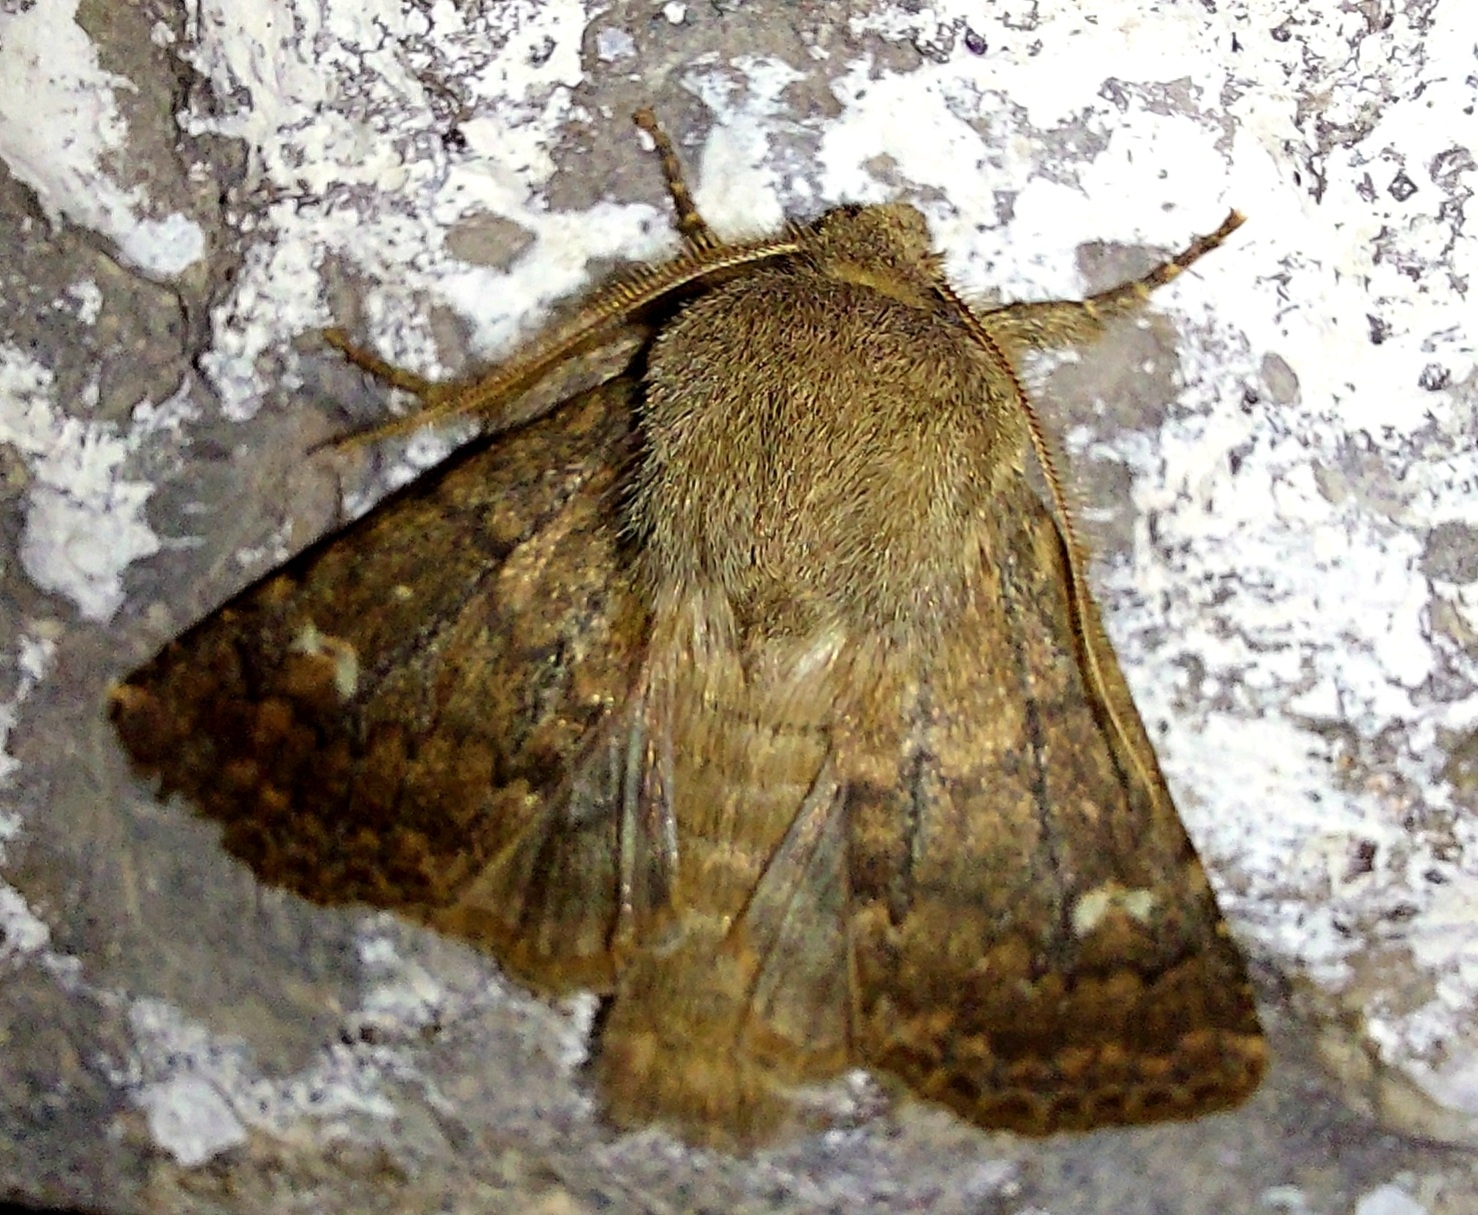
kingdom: Animalia
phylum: Arthropoda
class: Insecta
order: Lepidoptera
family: Noctuidae
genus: Dasypolia
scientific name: Dasypolia templi
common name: Brindled ochre
